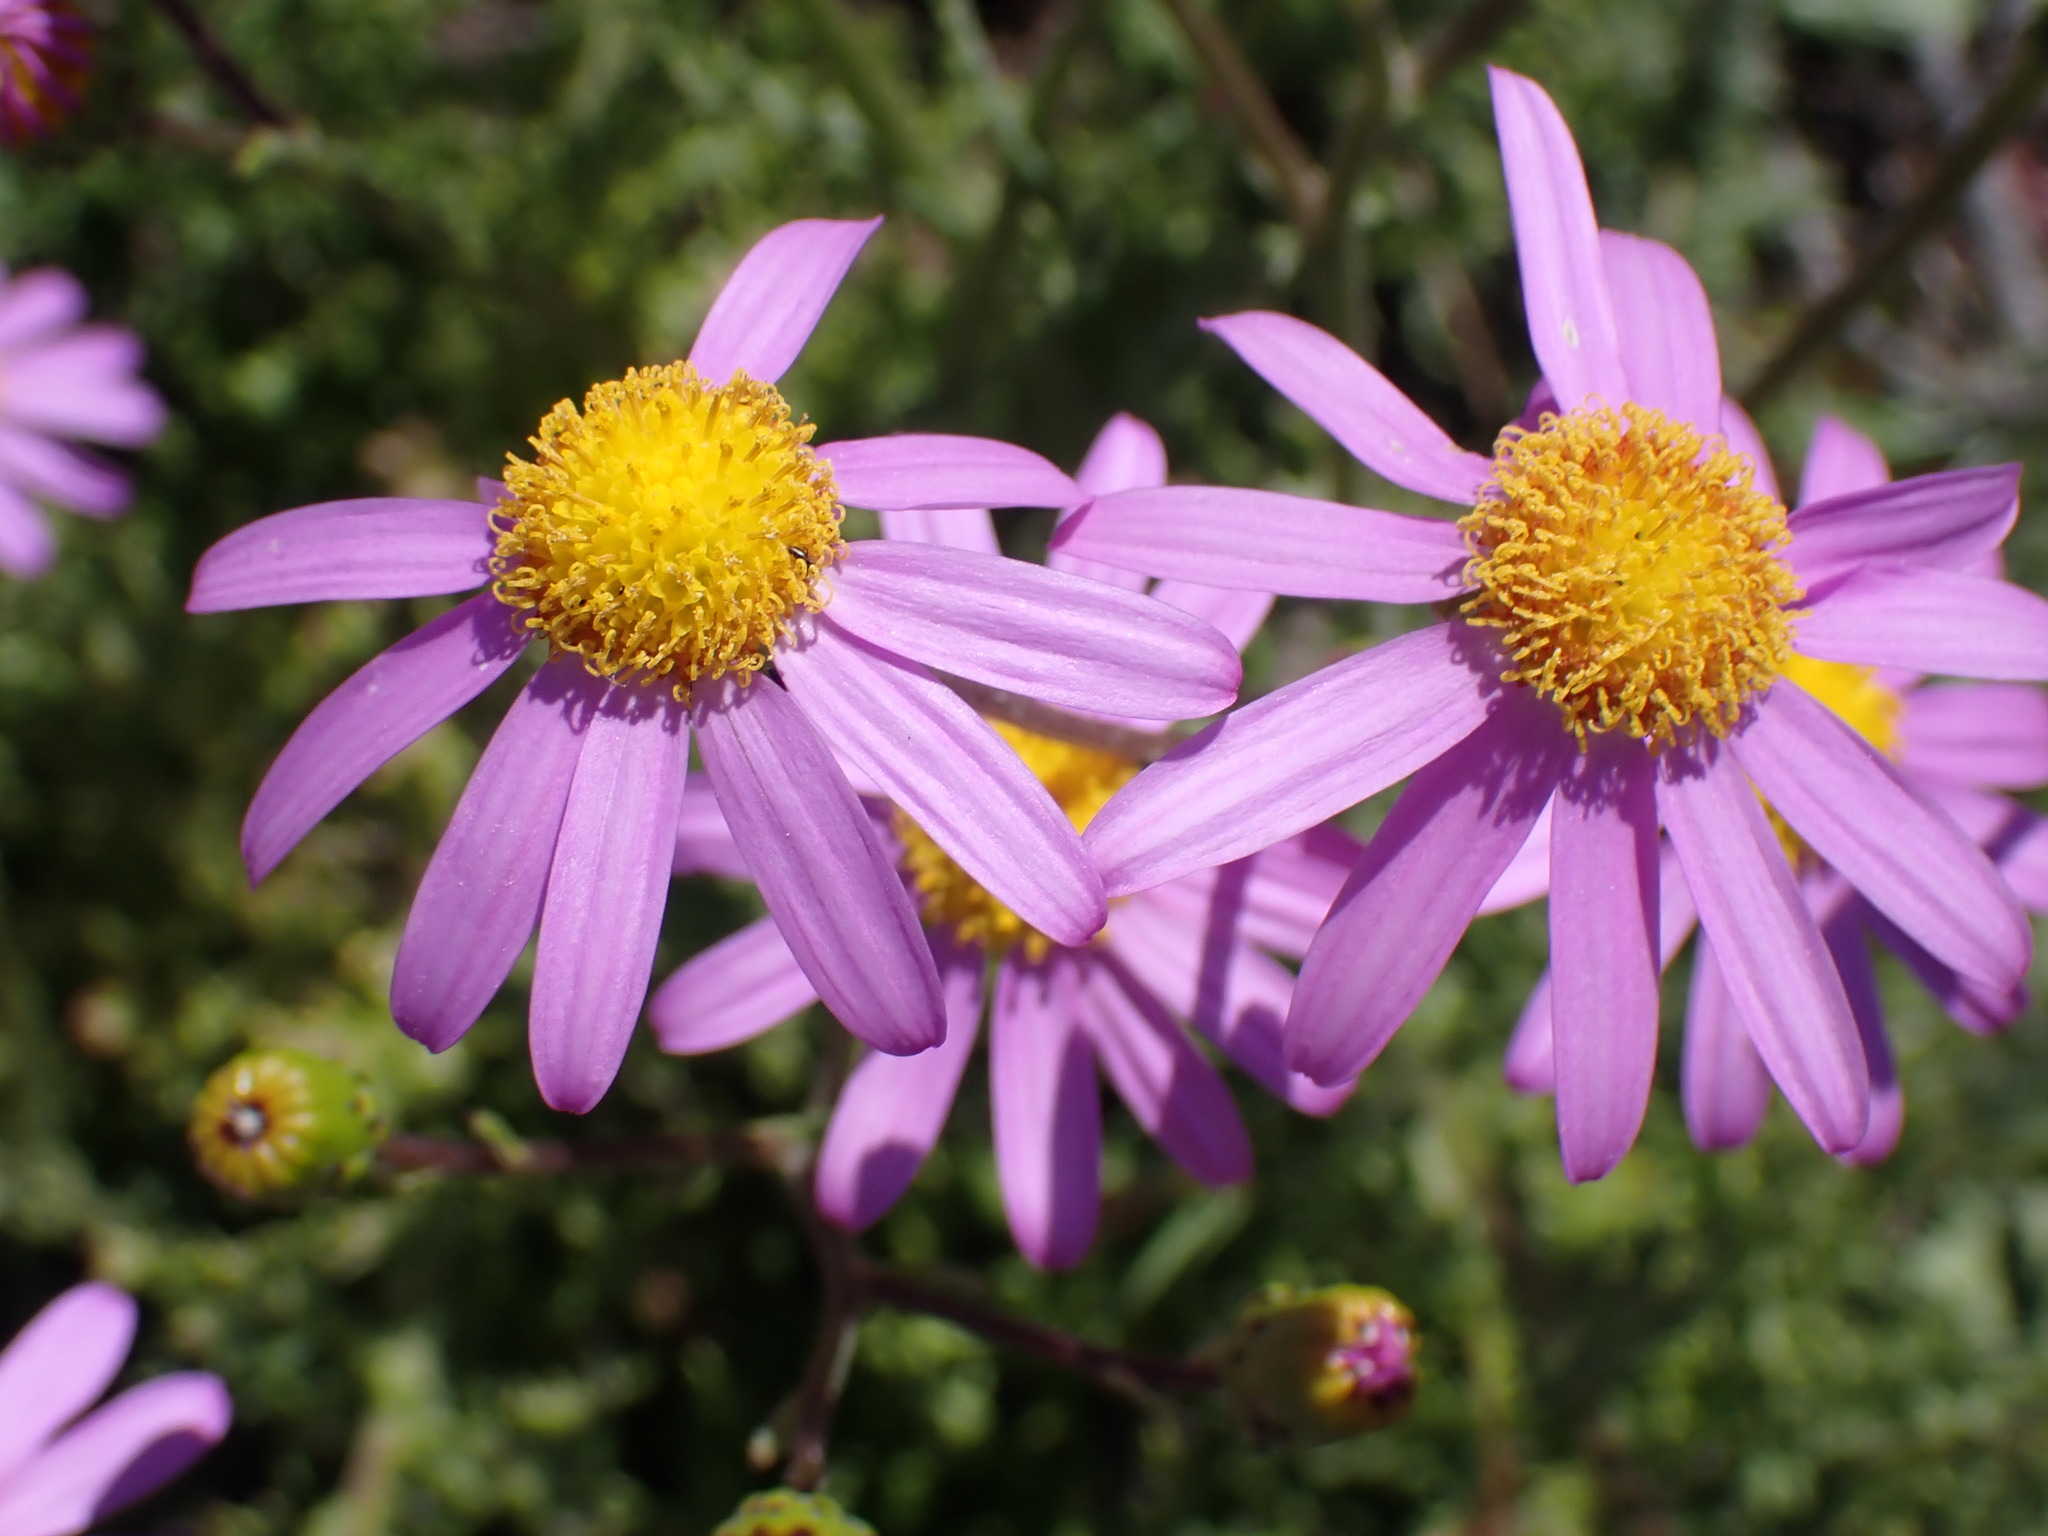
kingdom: Plantae
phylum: Tracheophyta
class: Magnoliopsida
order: Asterales
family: Asteraceae
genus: Senecio
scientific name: Senecio elegans
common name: Purple groundsel
